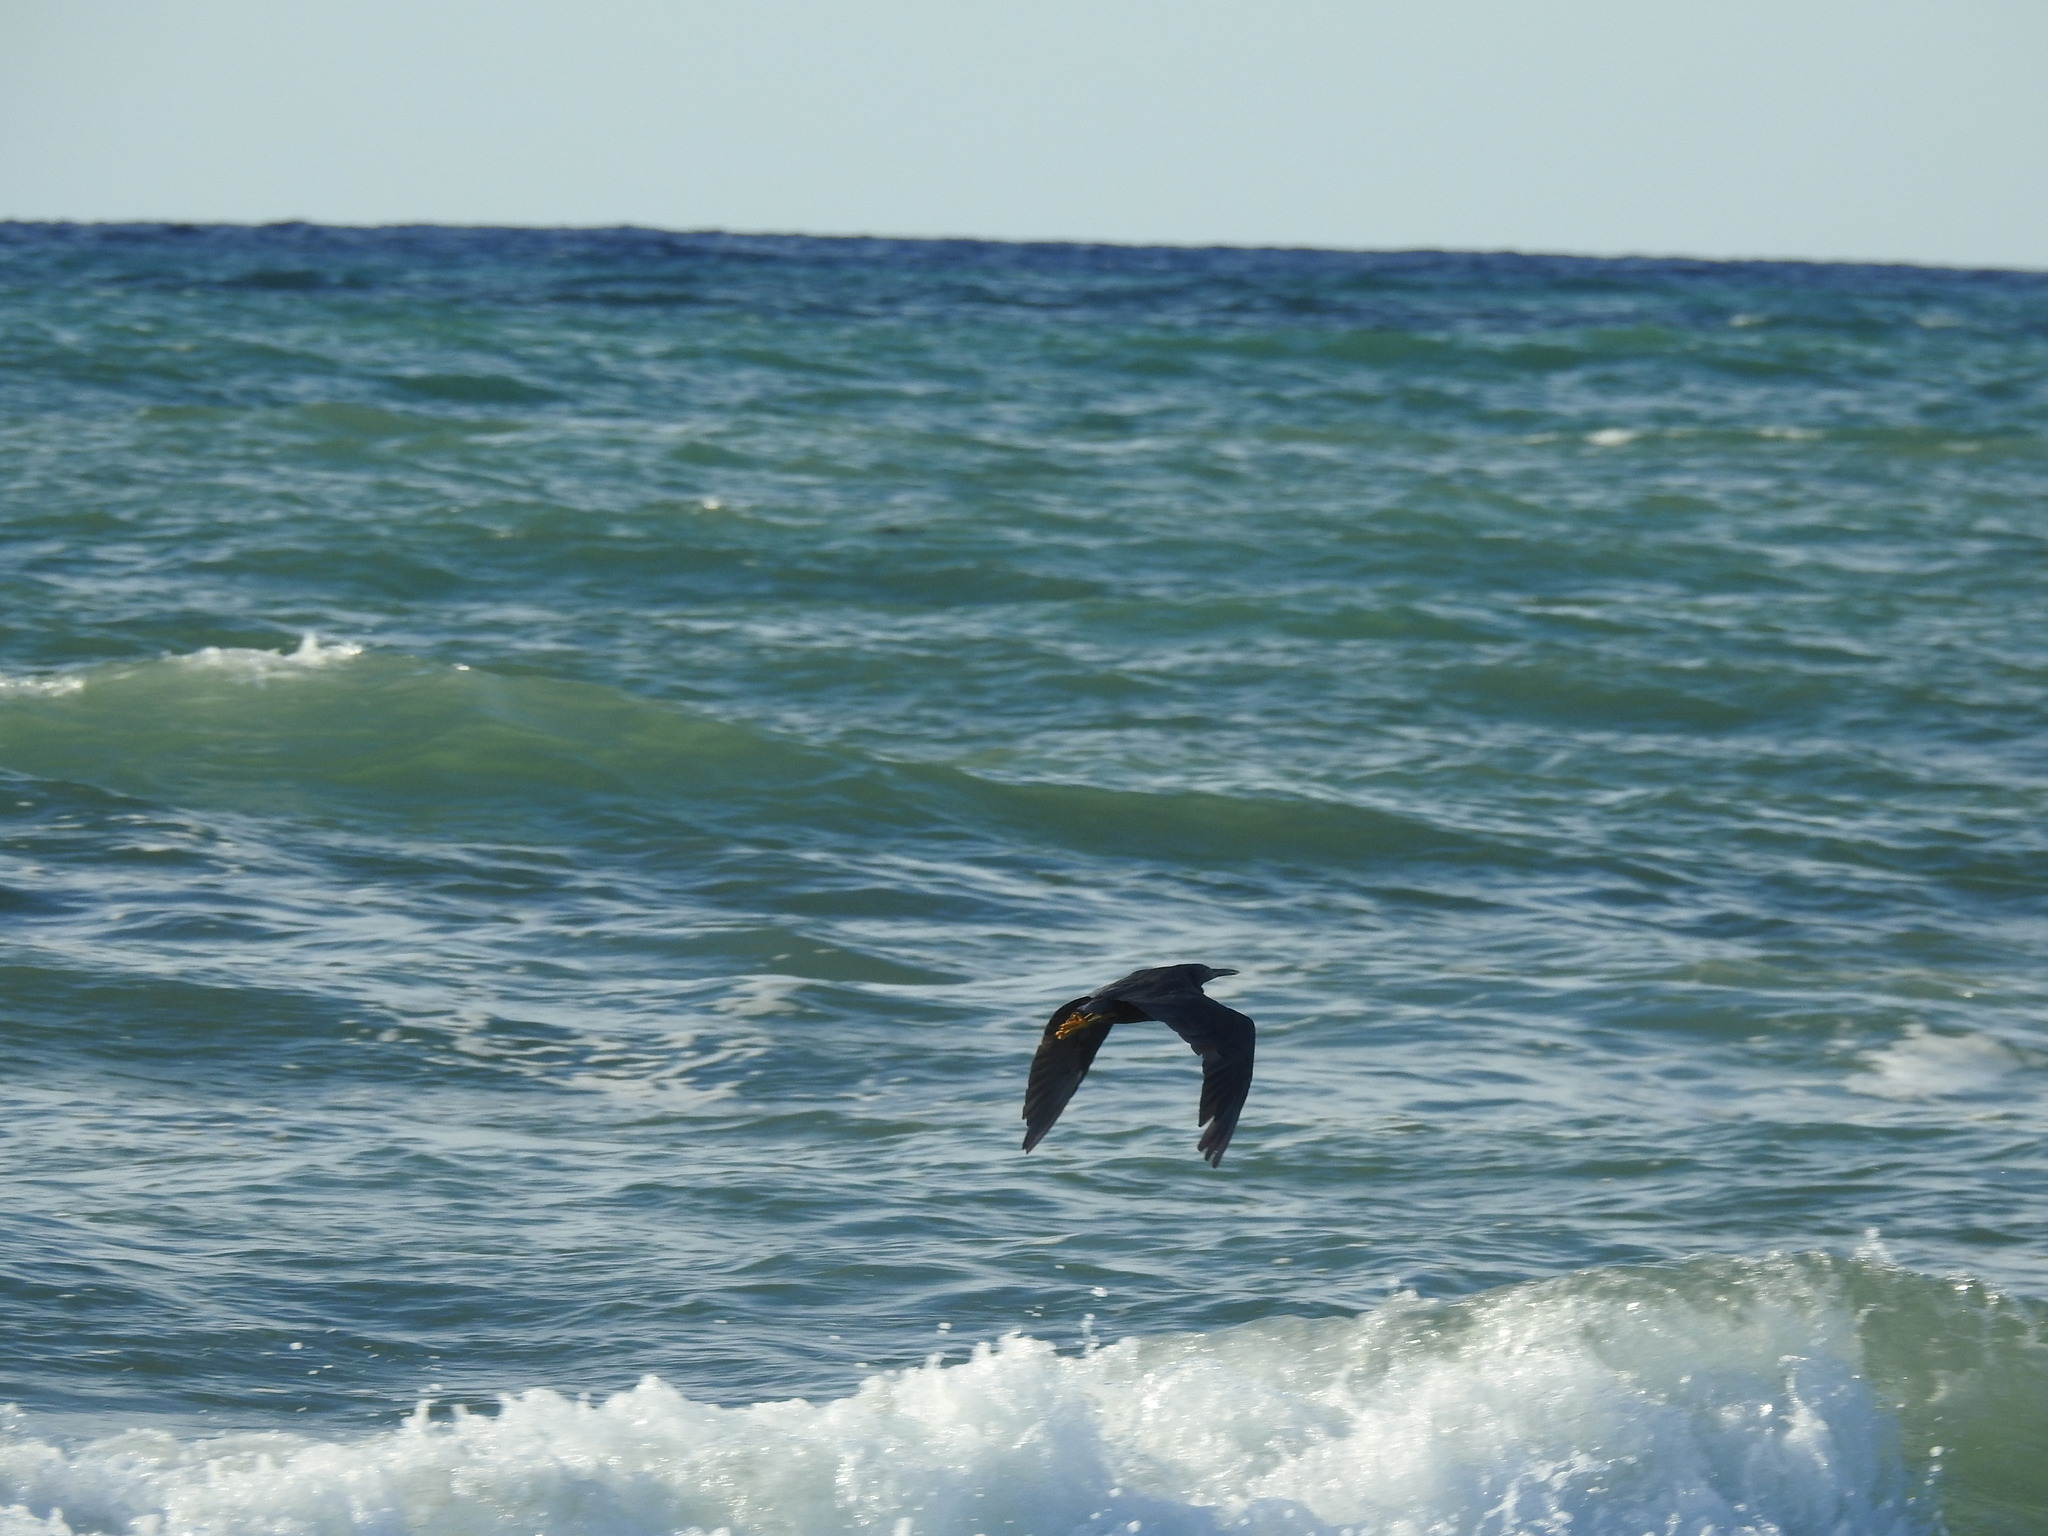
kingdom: Animalia
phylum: Chordata
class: Aves
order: Pelecaniformes
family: Ardeidae
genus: Egretta
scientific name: Egretta sacra
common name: Pacific reef heron
